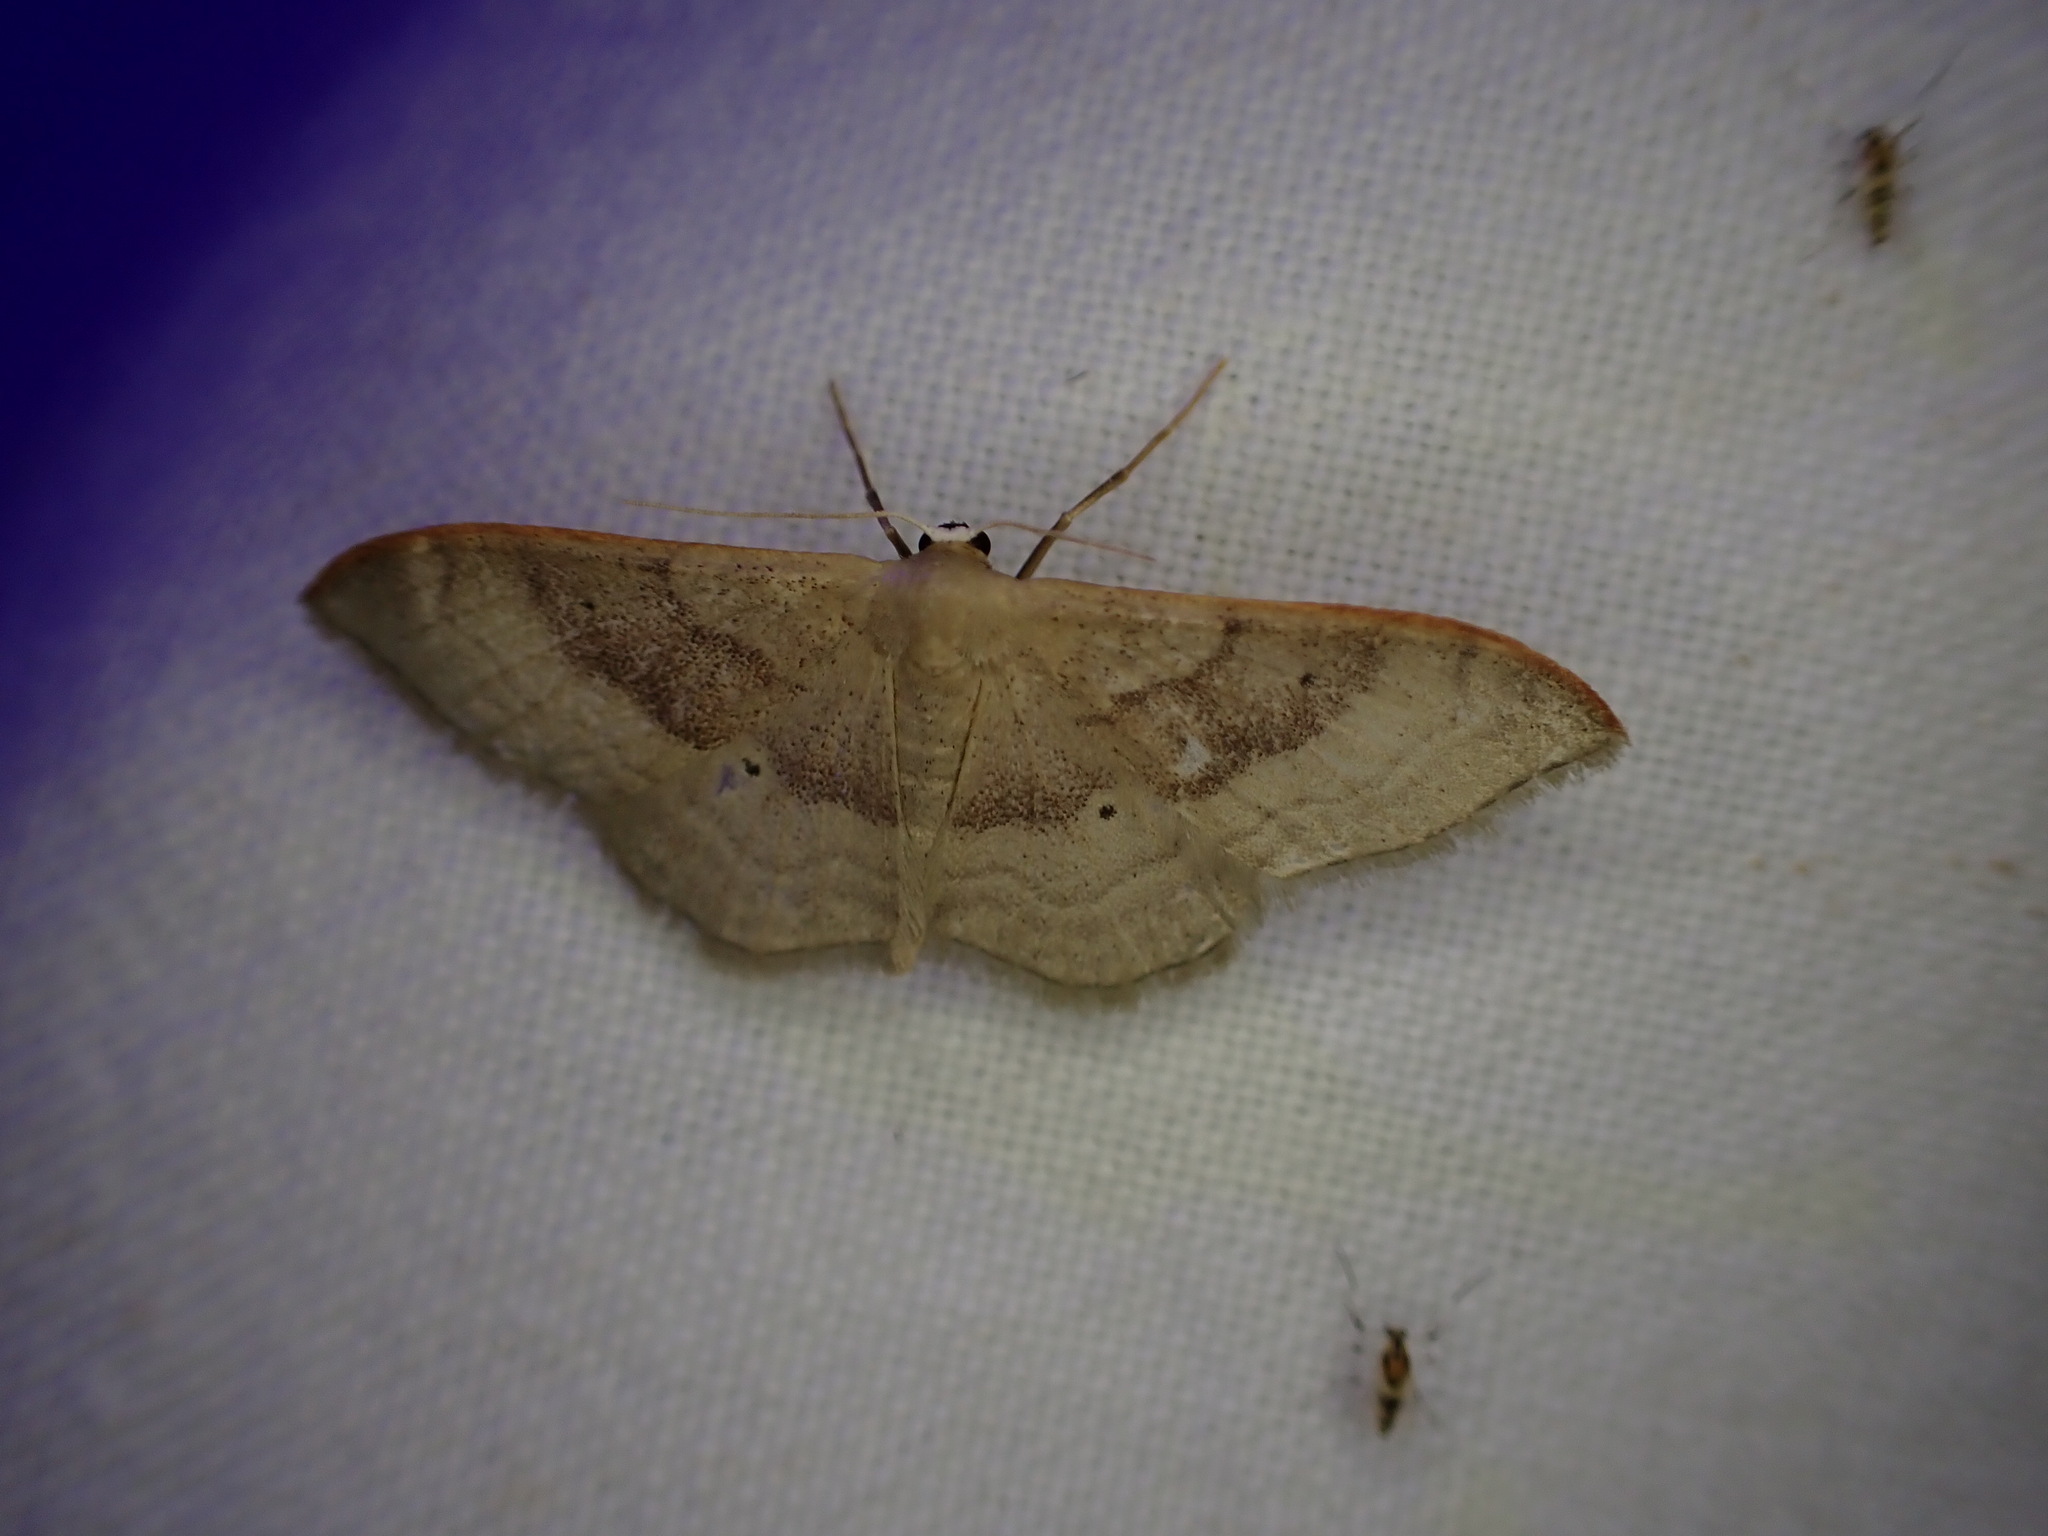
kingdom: Animalia
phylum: Arthropoda
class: Insecta
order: Lepidoptera
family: Geometridae
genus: Idaea
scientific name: Idaea degeneraria
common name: Portland ribbon wave
